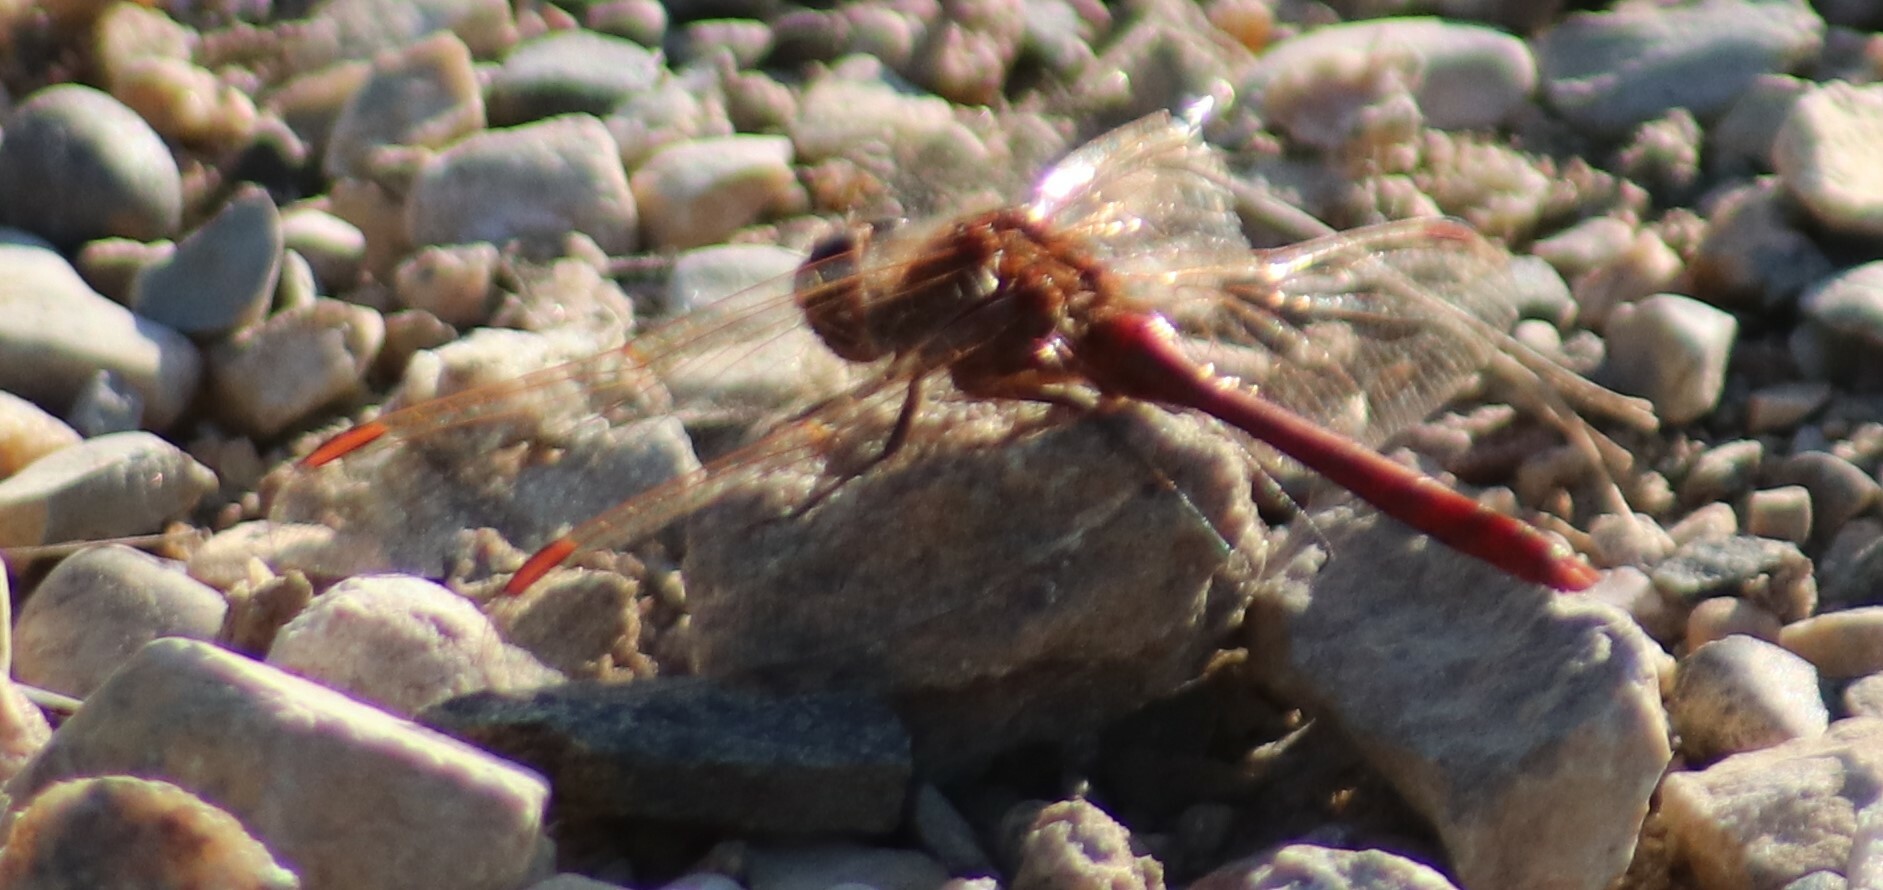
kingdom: Animalia
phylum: Arthropoda
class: Insecta
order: Odonata
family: Libellulidae
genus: Sympetrum
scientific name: Sympetrum costiferum
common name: Saffron-winged meadowhawk
